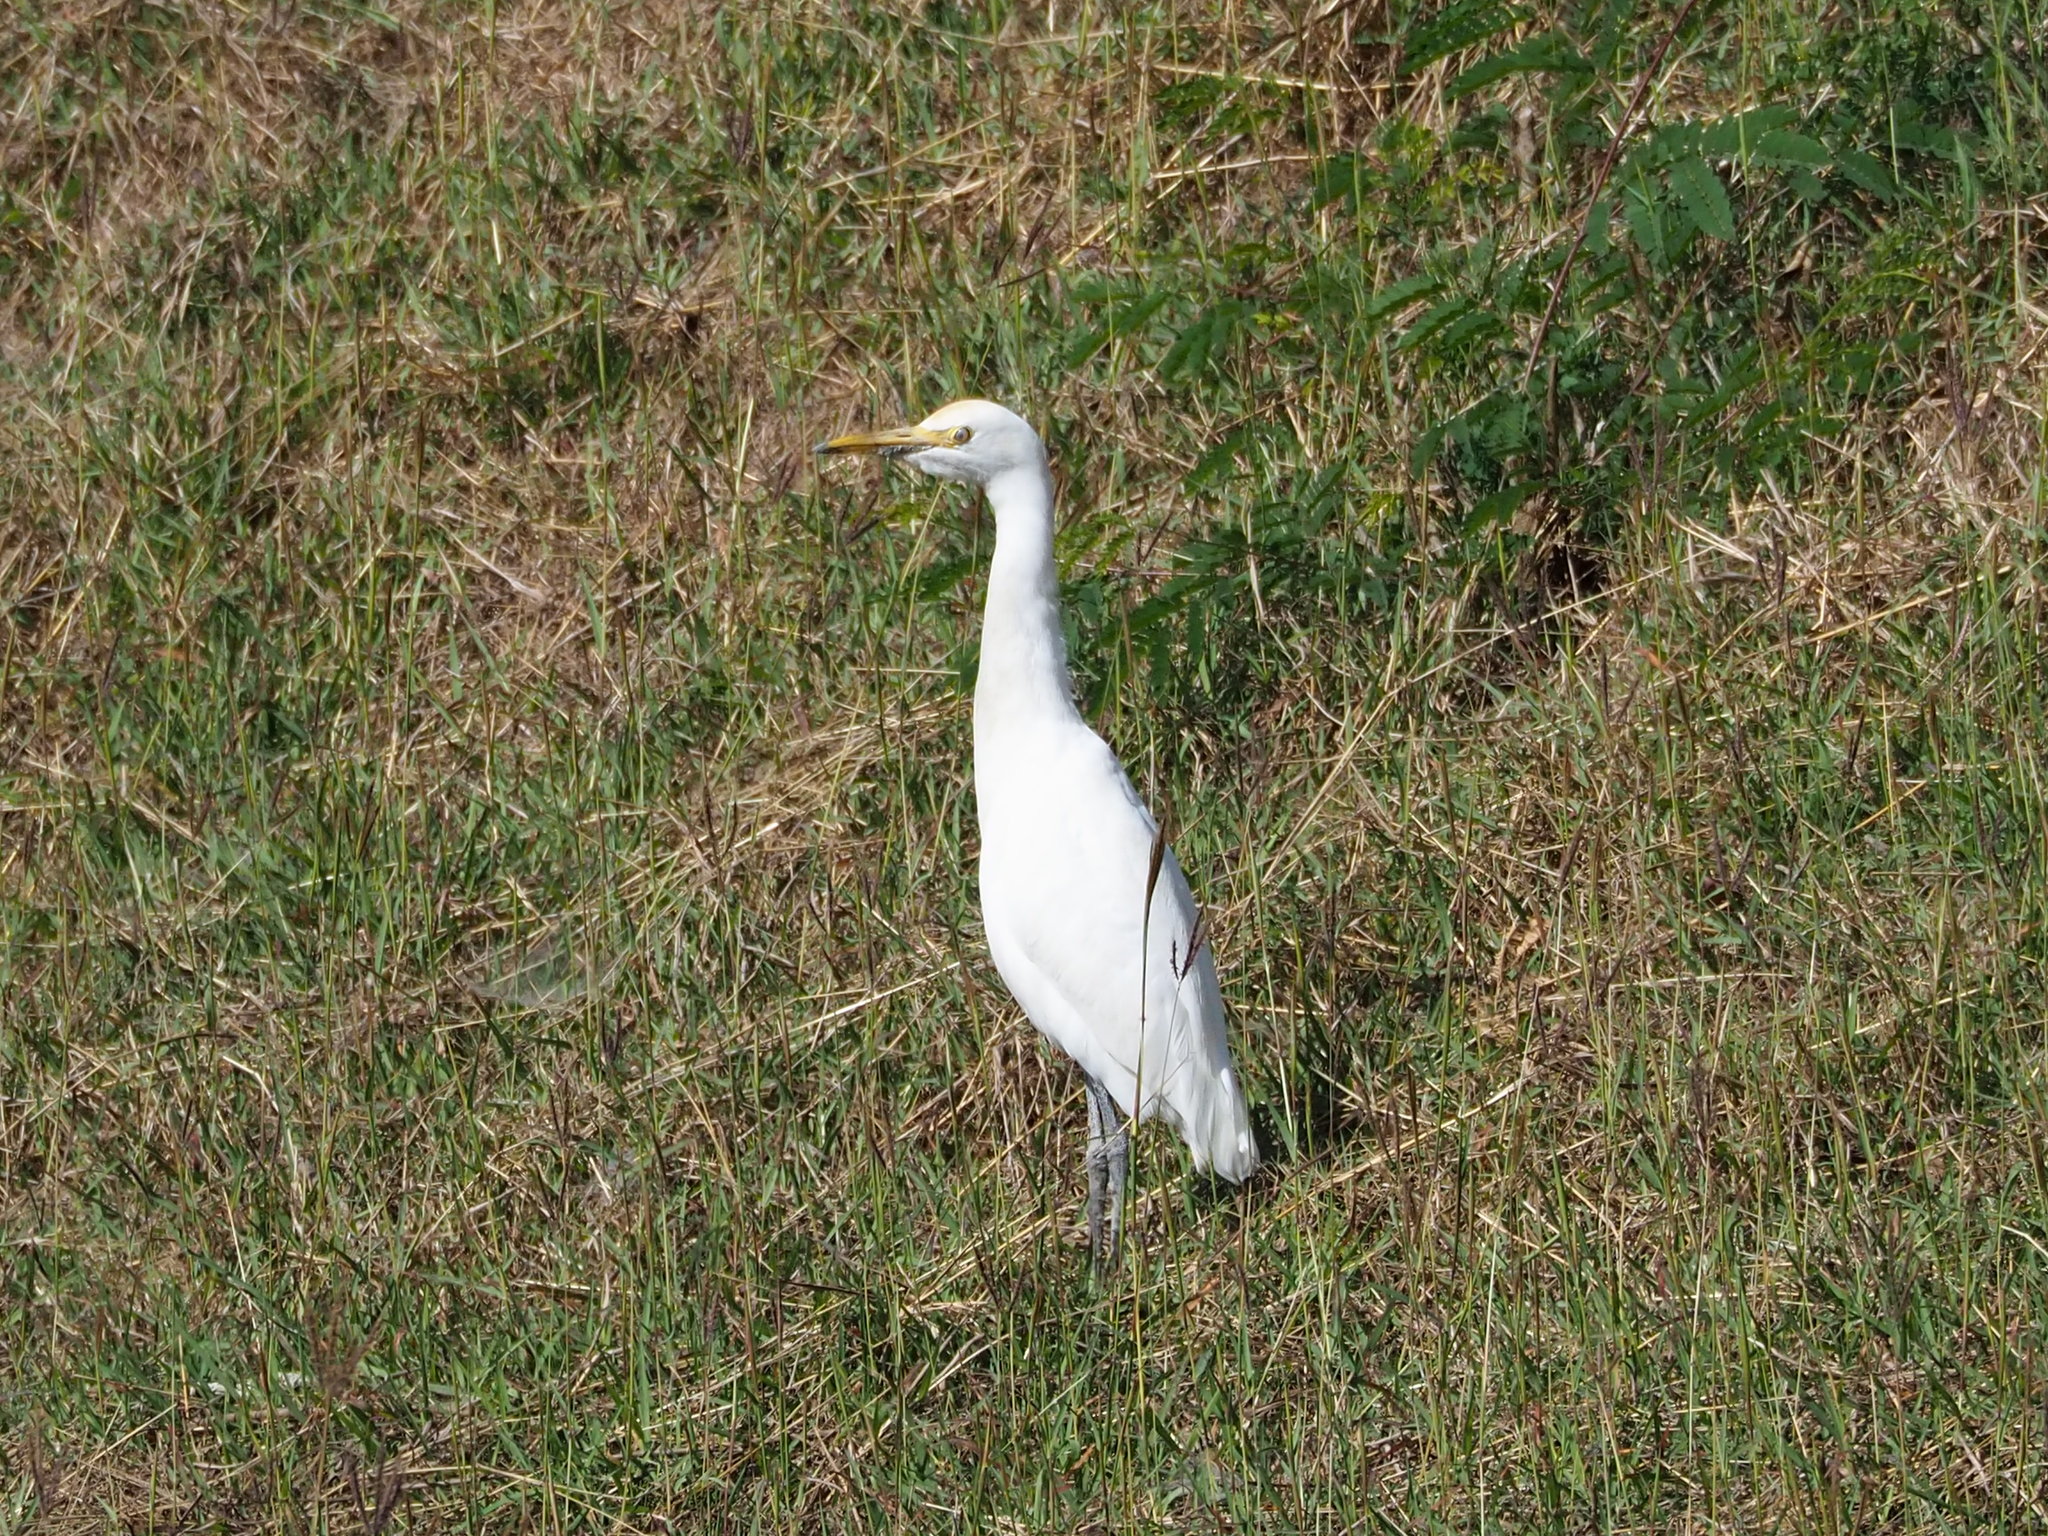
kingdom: Animalia
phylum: Chordata
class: Aves
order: Pelecaniformes
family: Ardeidae
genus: Bubulcus
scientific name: Bubulcus coromandus
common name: Eastern cattle egret
